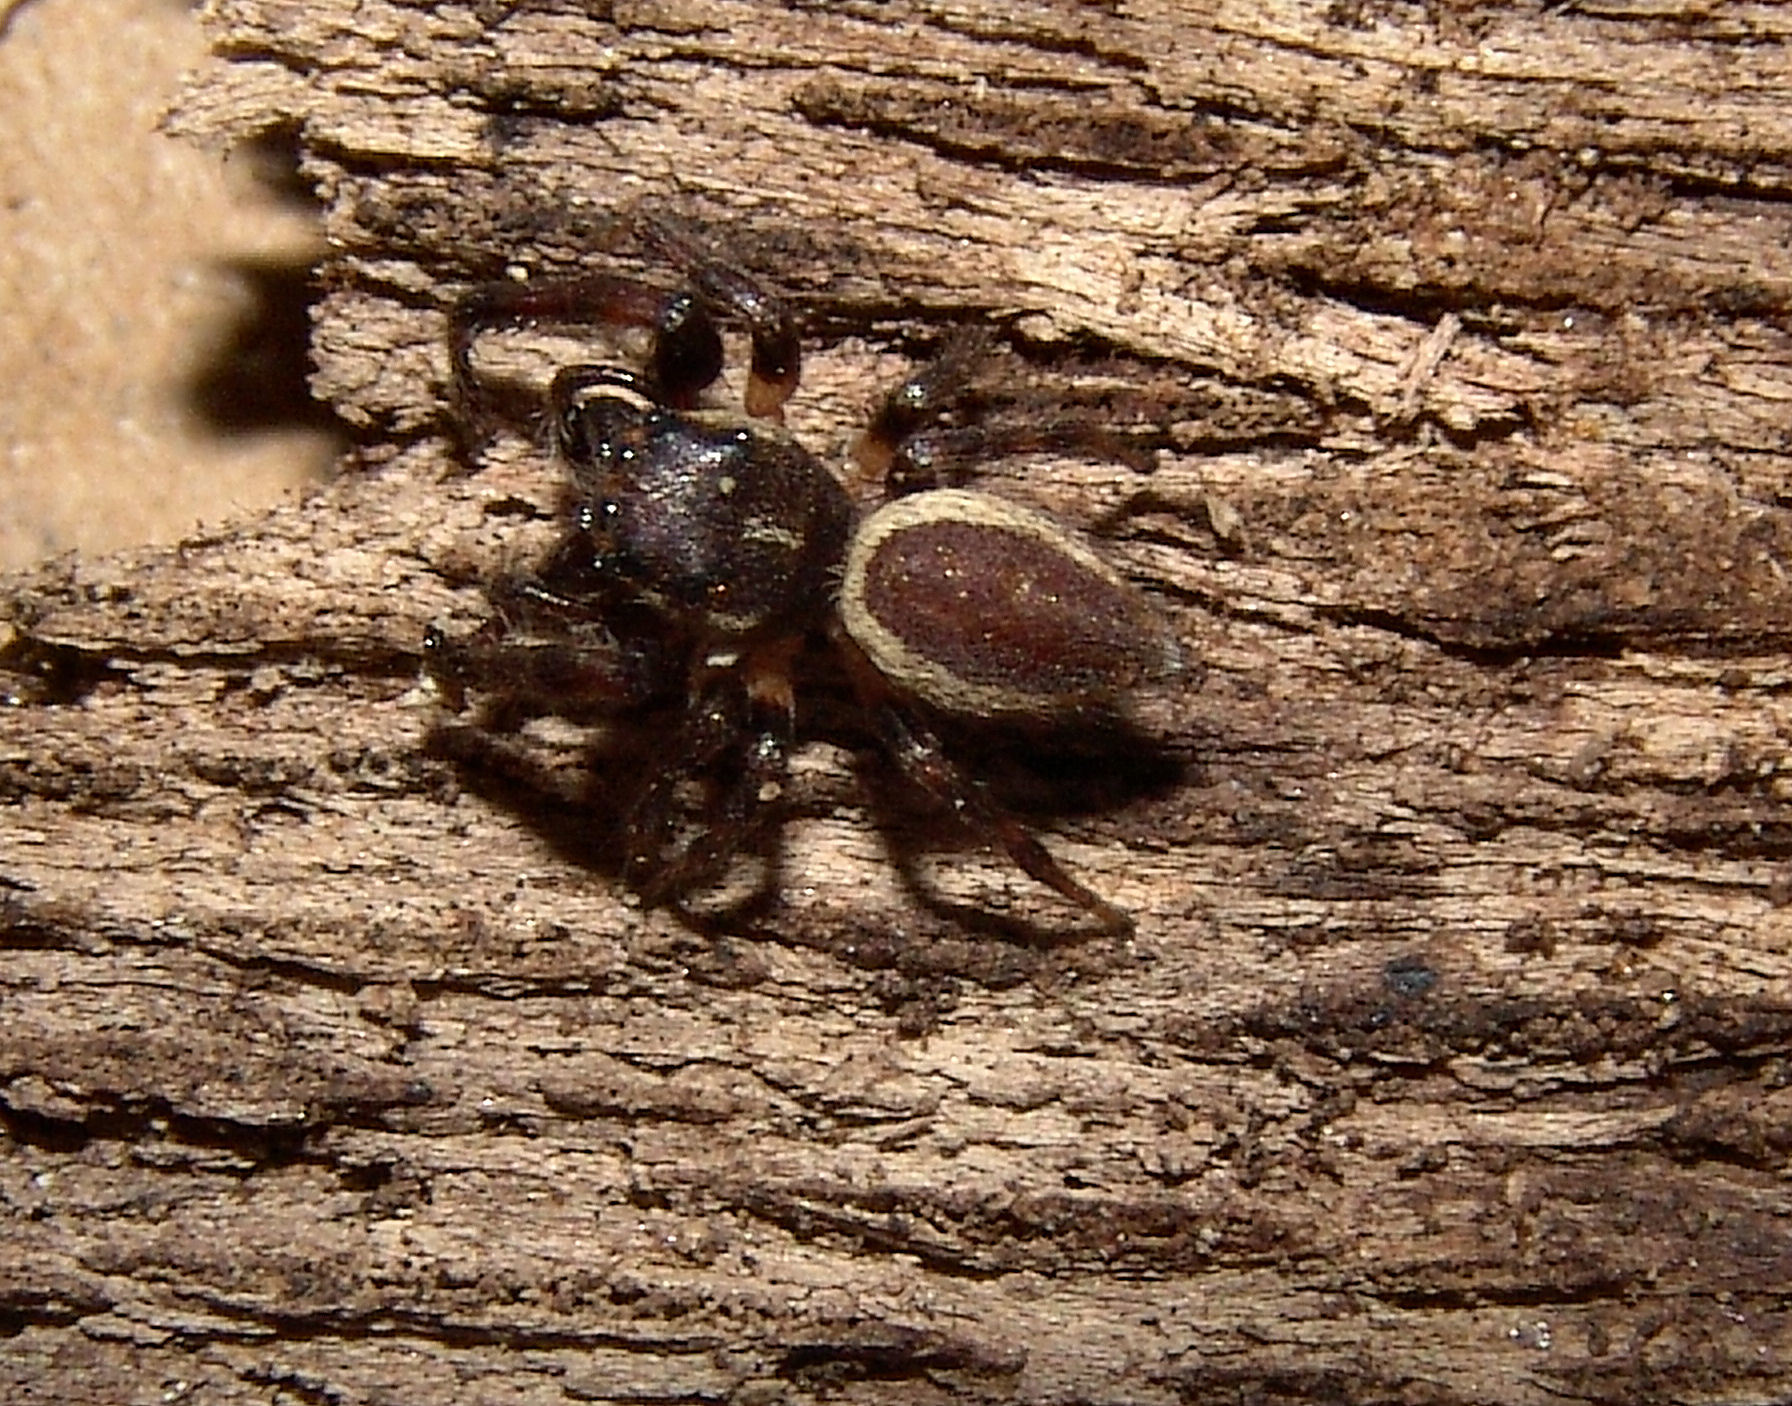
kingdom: Animalia
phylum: Arthropoda
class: Arachnida
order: Araneae
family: Salticidae
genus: Eris
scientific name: Eris militaris
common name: Bronze jumper
